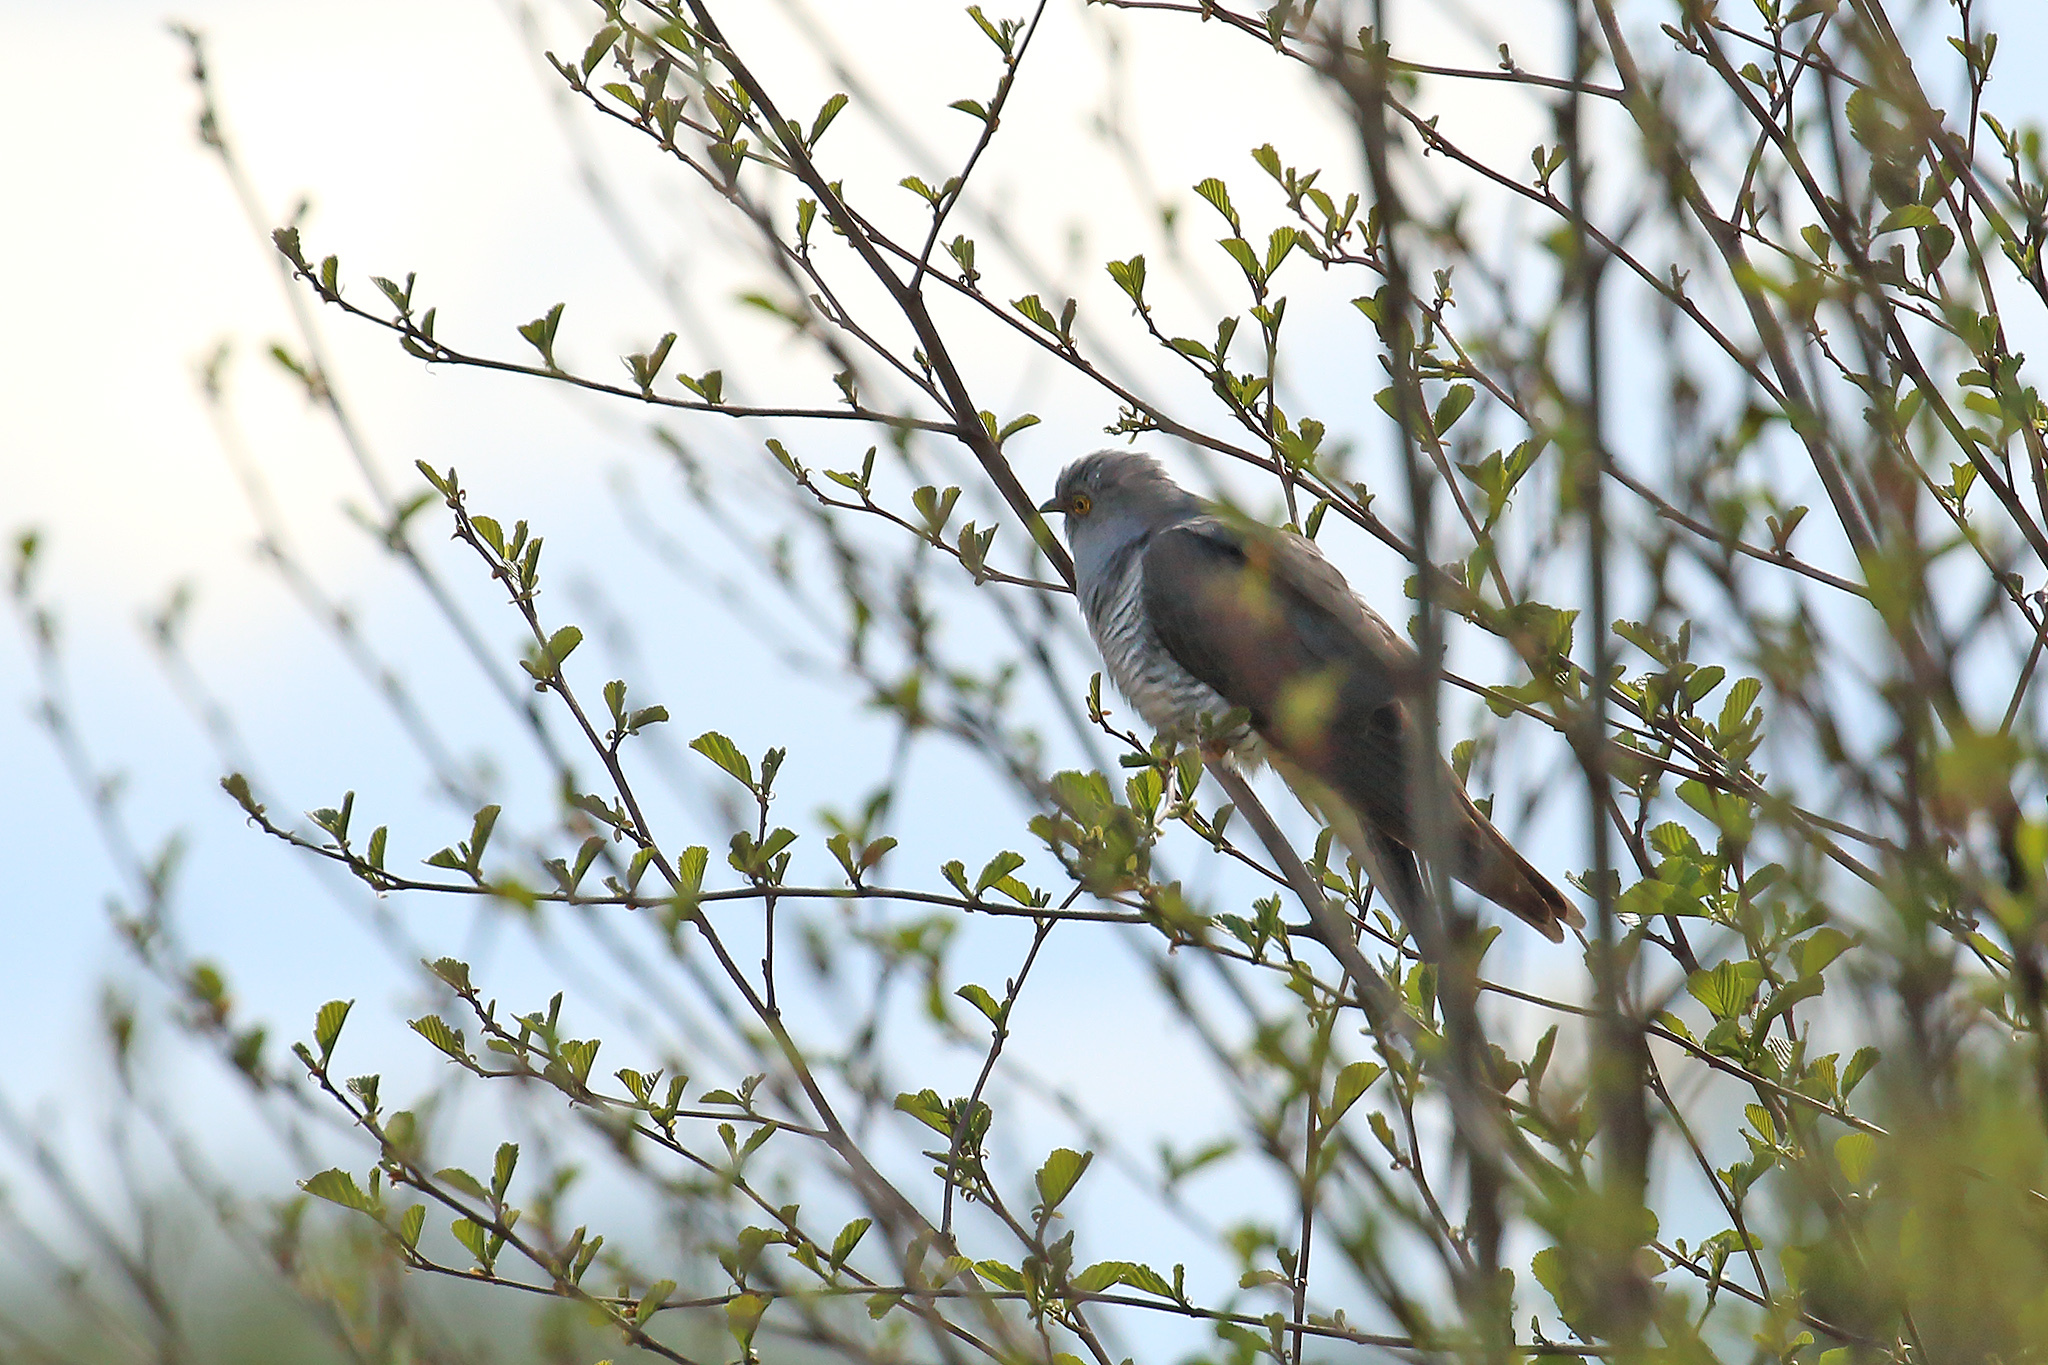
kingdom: Animalia
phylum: Chordata
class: Aves
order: Cuculiformes
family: Cuculidae
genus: Cuculus
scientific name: Cuculus canorus
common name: Common cuckoo
